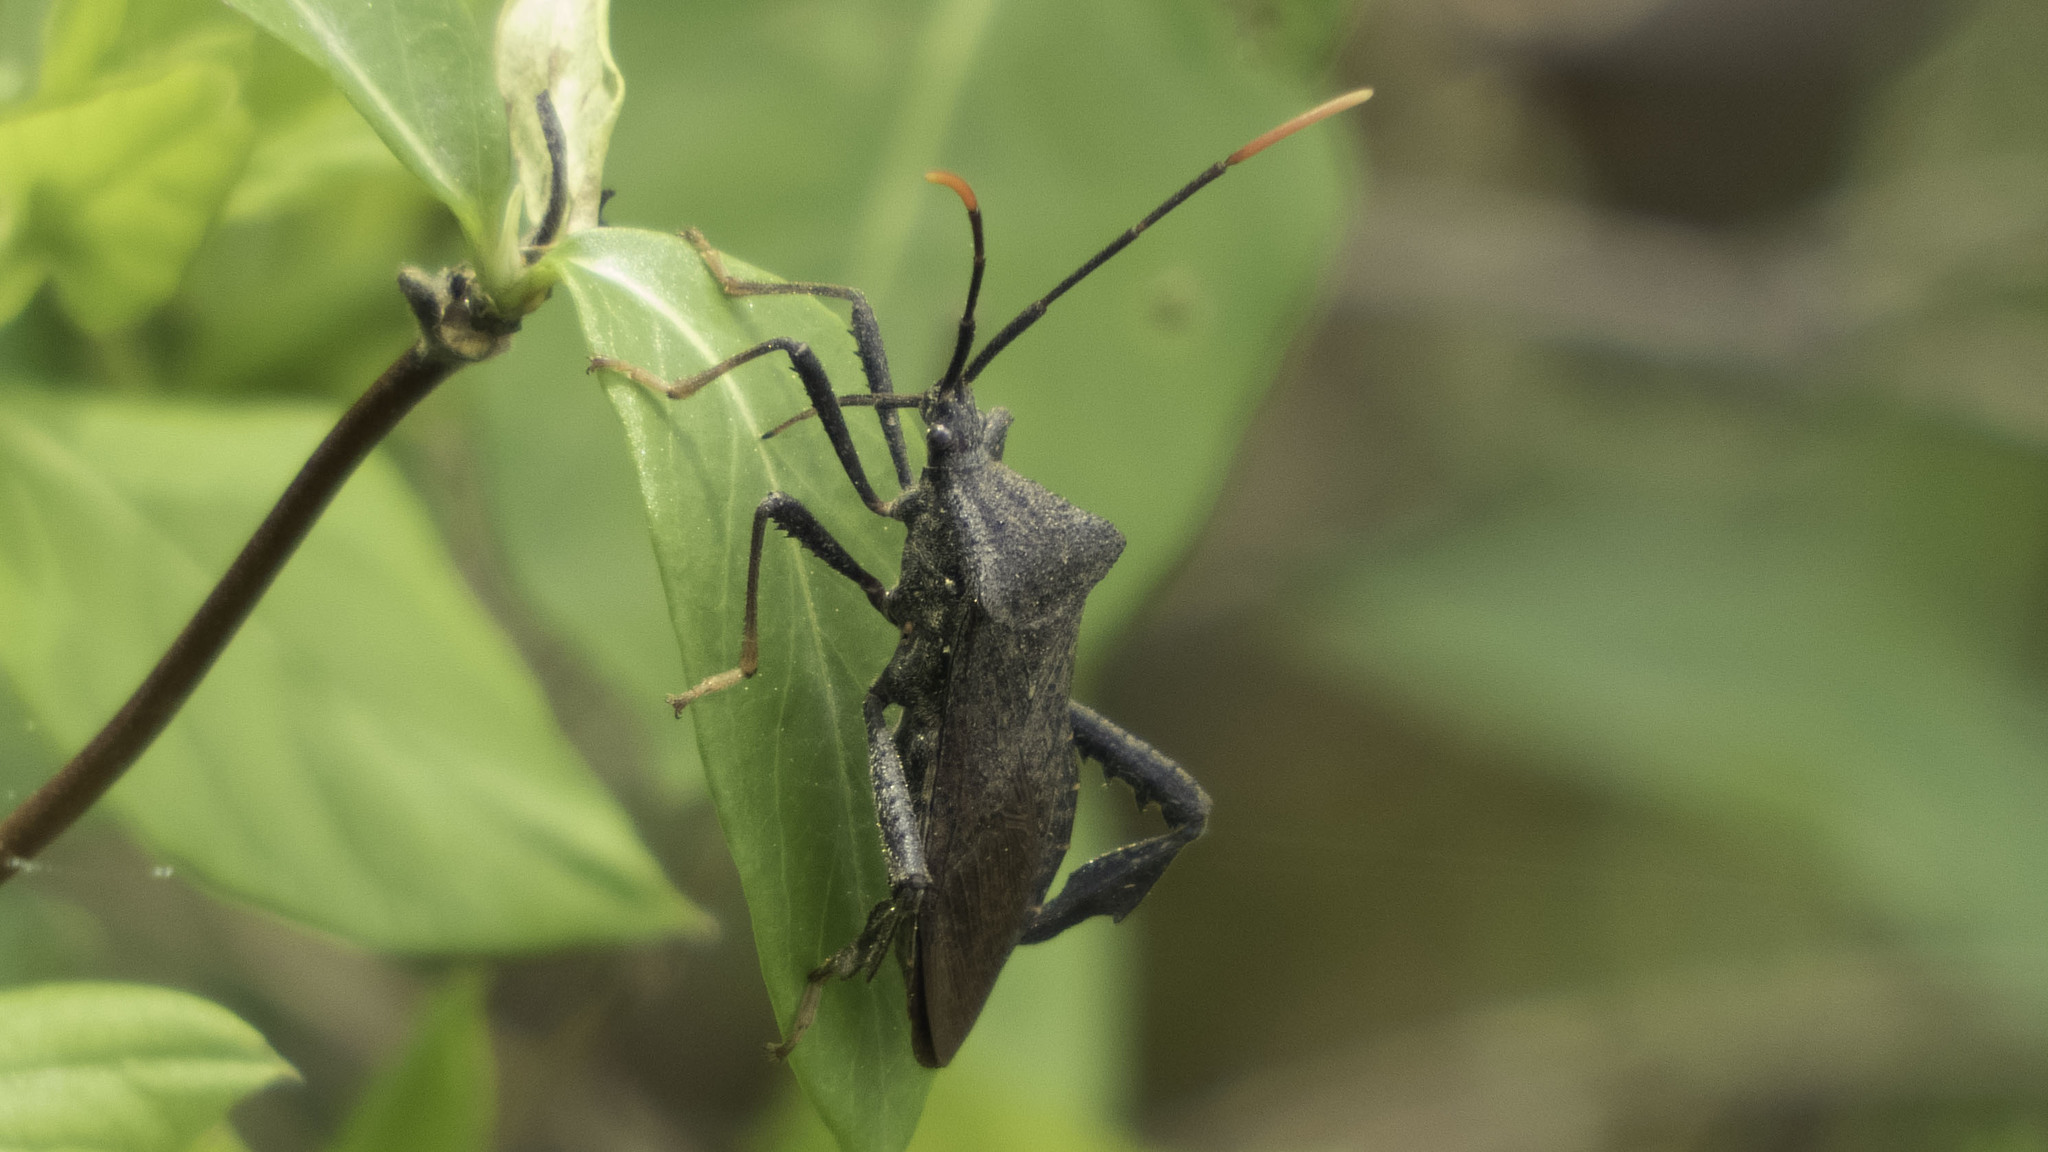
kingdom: Animalia
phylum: Arthropoda
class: Insecta
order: Hemiptera
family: Coreidae
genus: Acanthocephala
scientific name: Acanthocephala terminalis
